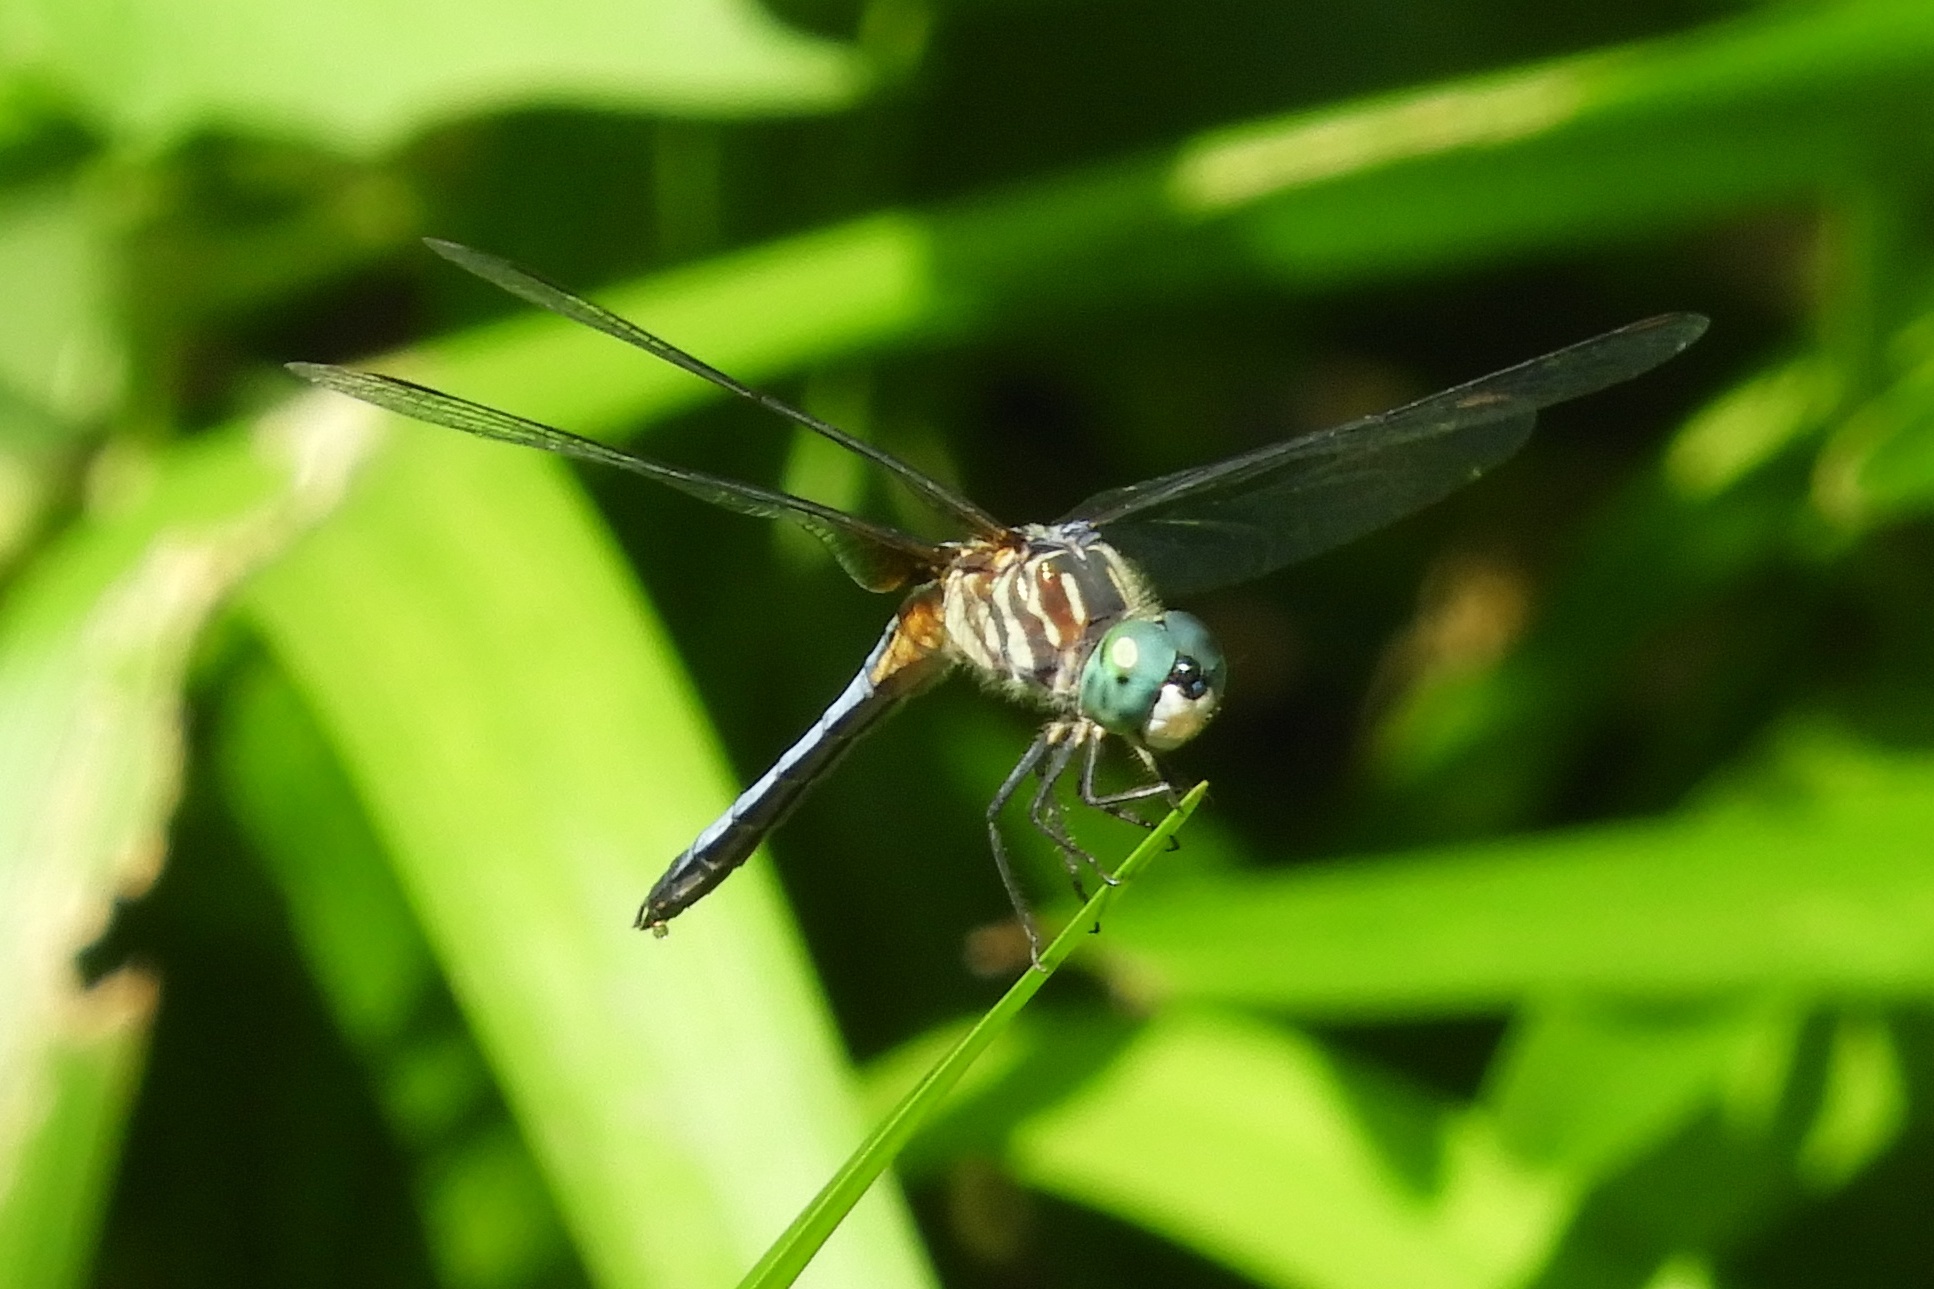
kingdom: Animalia
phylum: Arthropoda
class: Insecta
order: Odonata
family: Libellulidae
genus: Pachydiplax
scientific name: Pachydiplax longipennis
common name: Blue dasher
